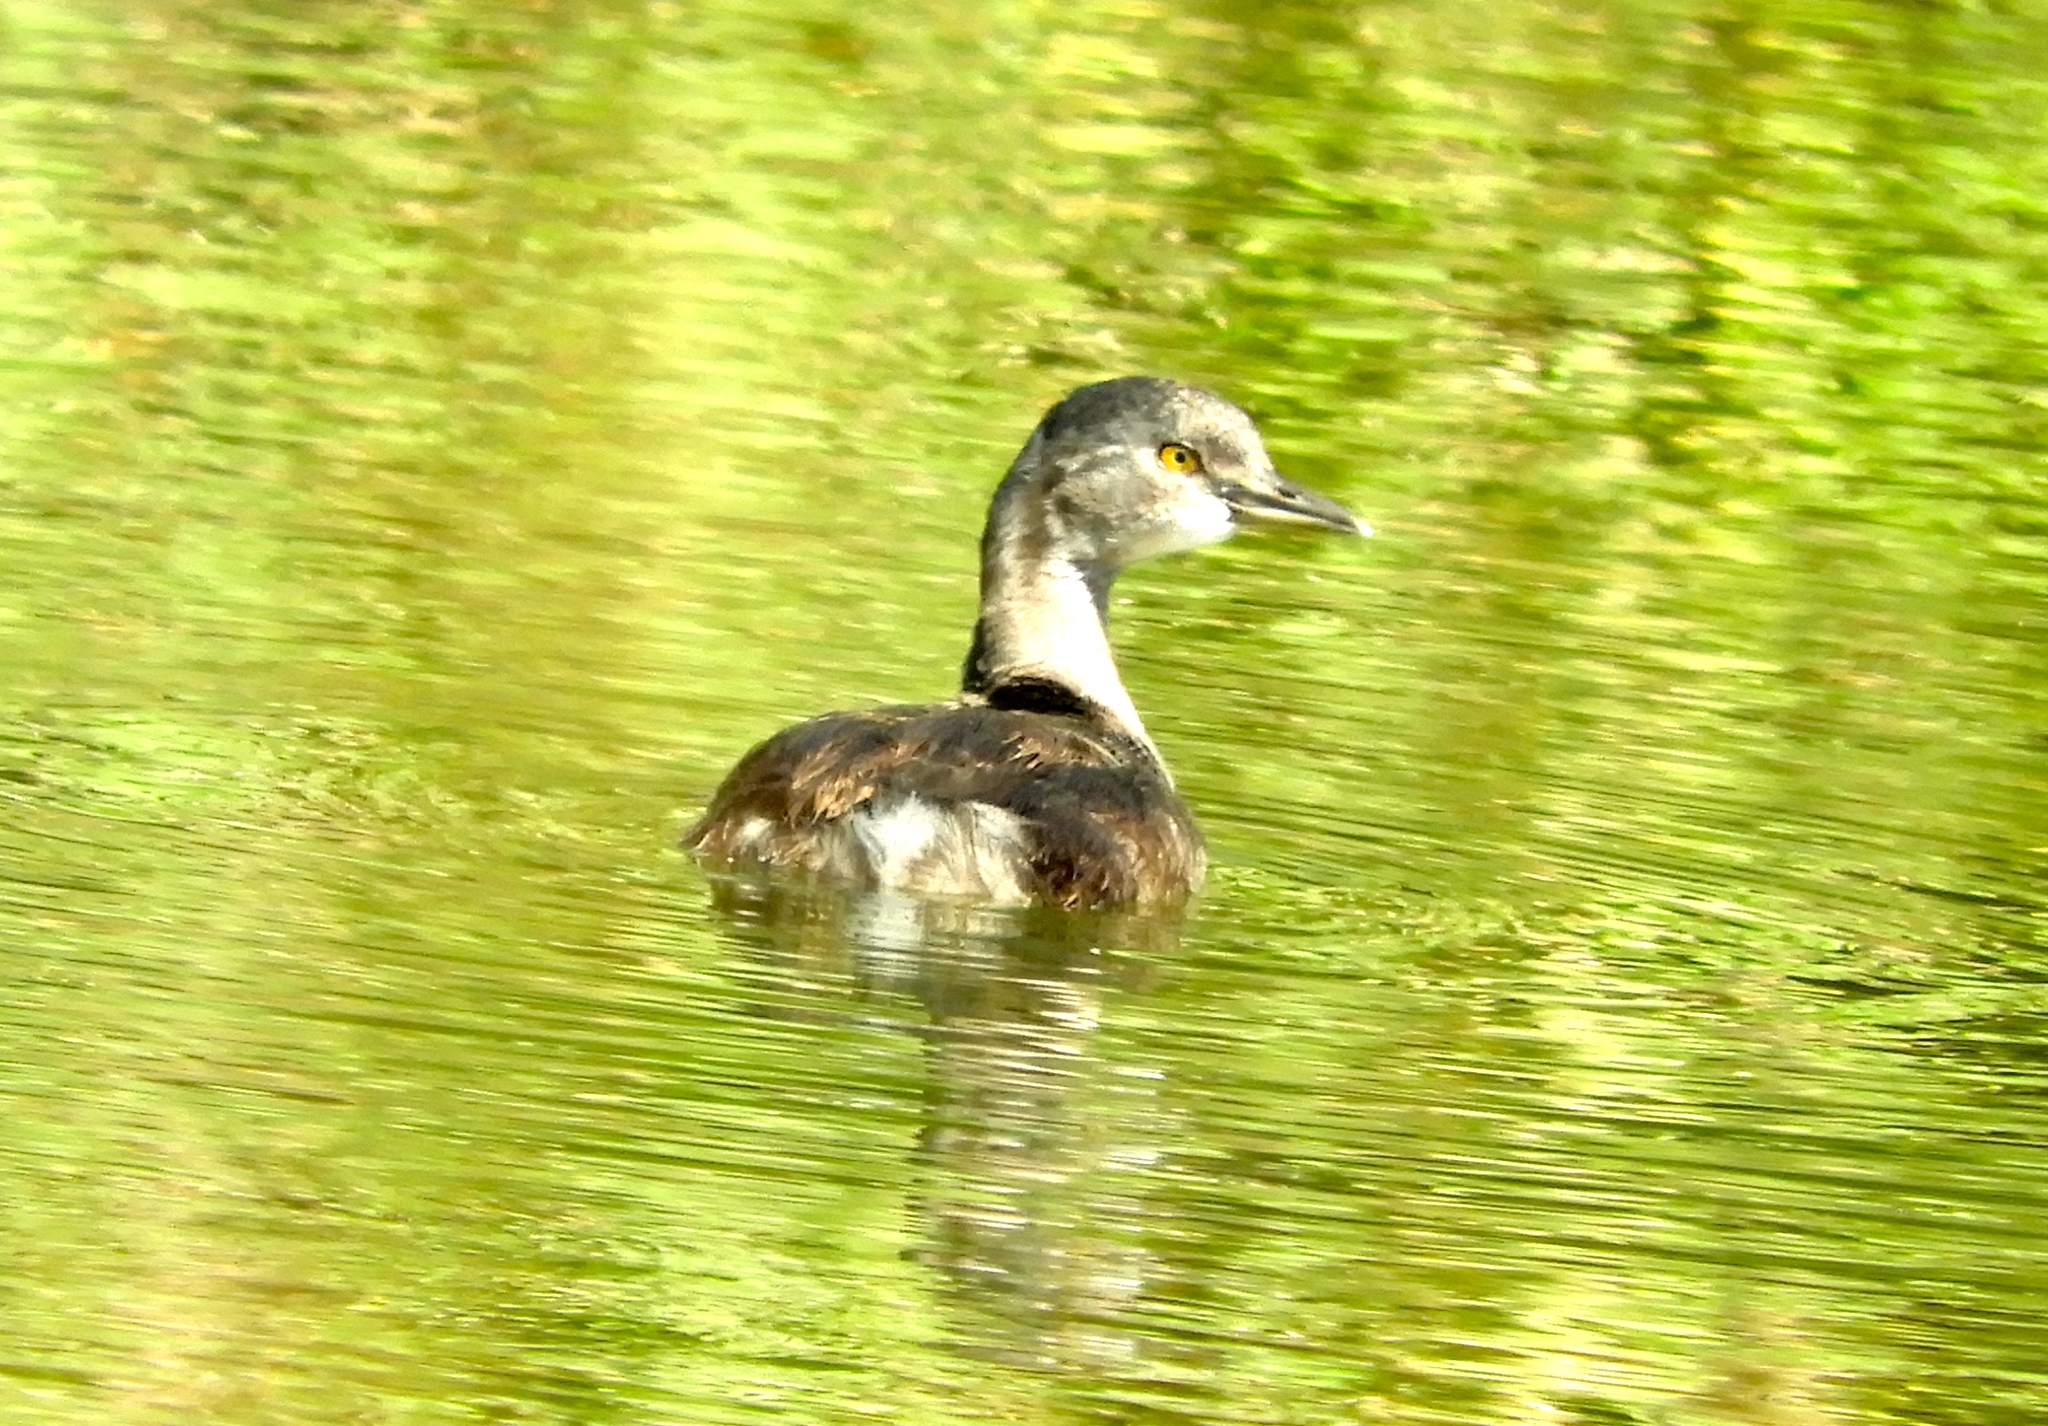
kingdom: Animalia
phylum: Chordata
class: Aves
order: Podicipediformes
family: Podicipedidae
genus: Tachybaptus
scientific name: Tachybaptus dominicus
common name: Least grebe
